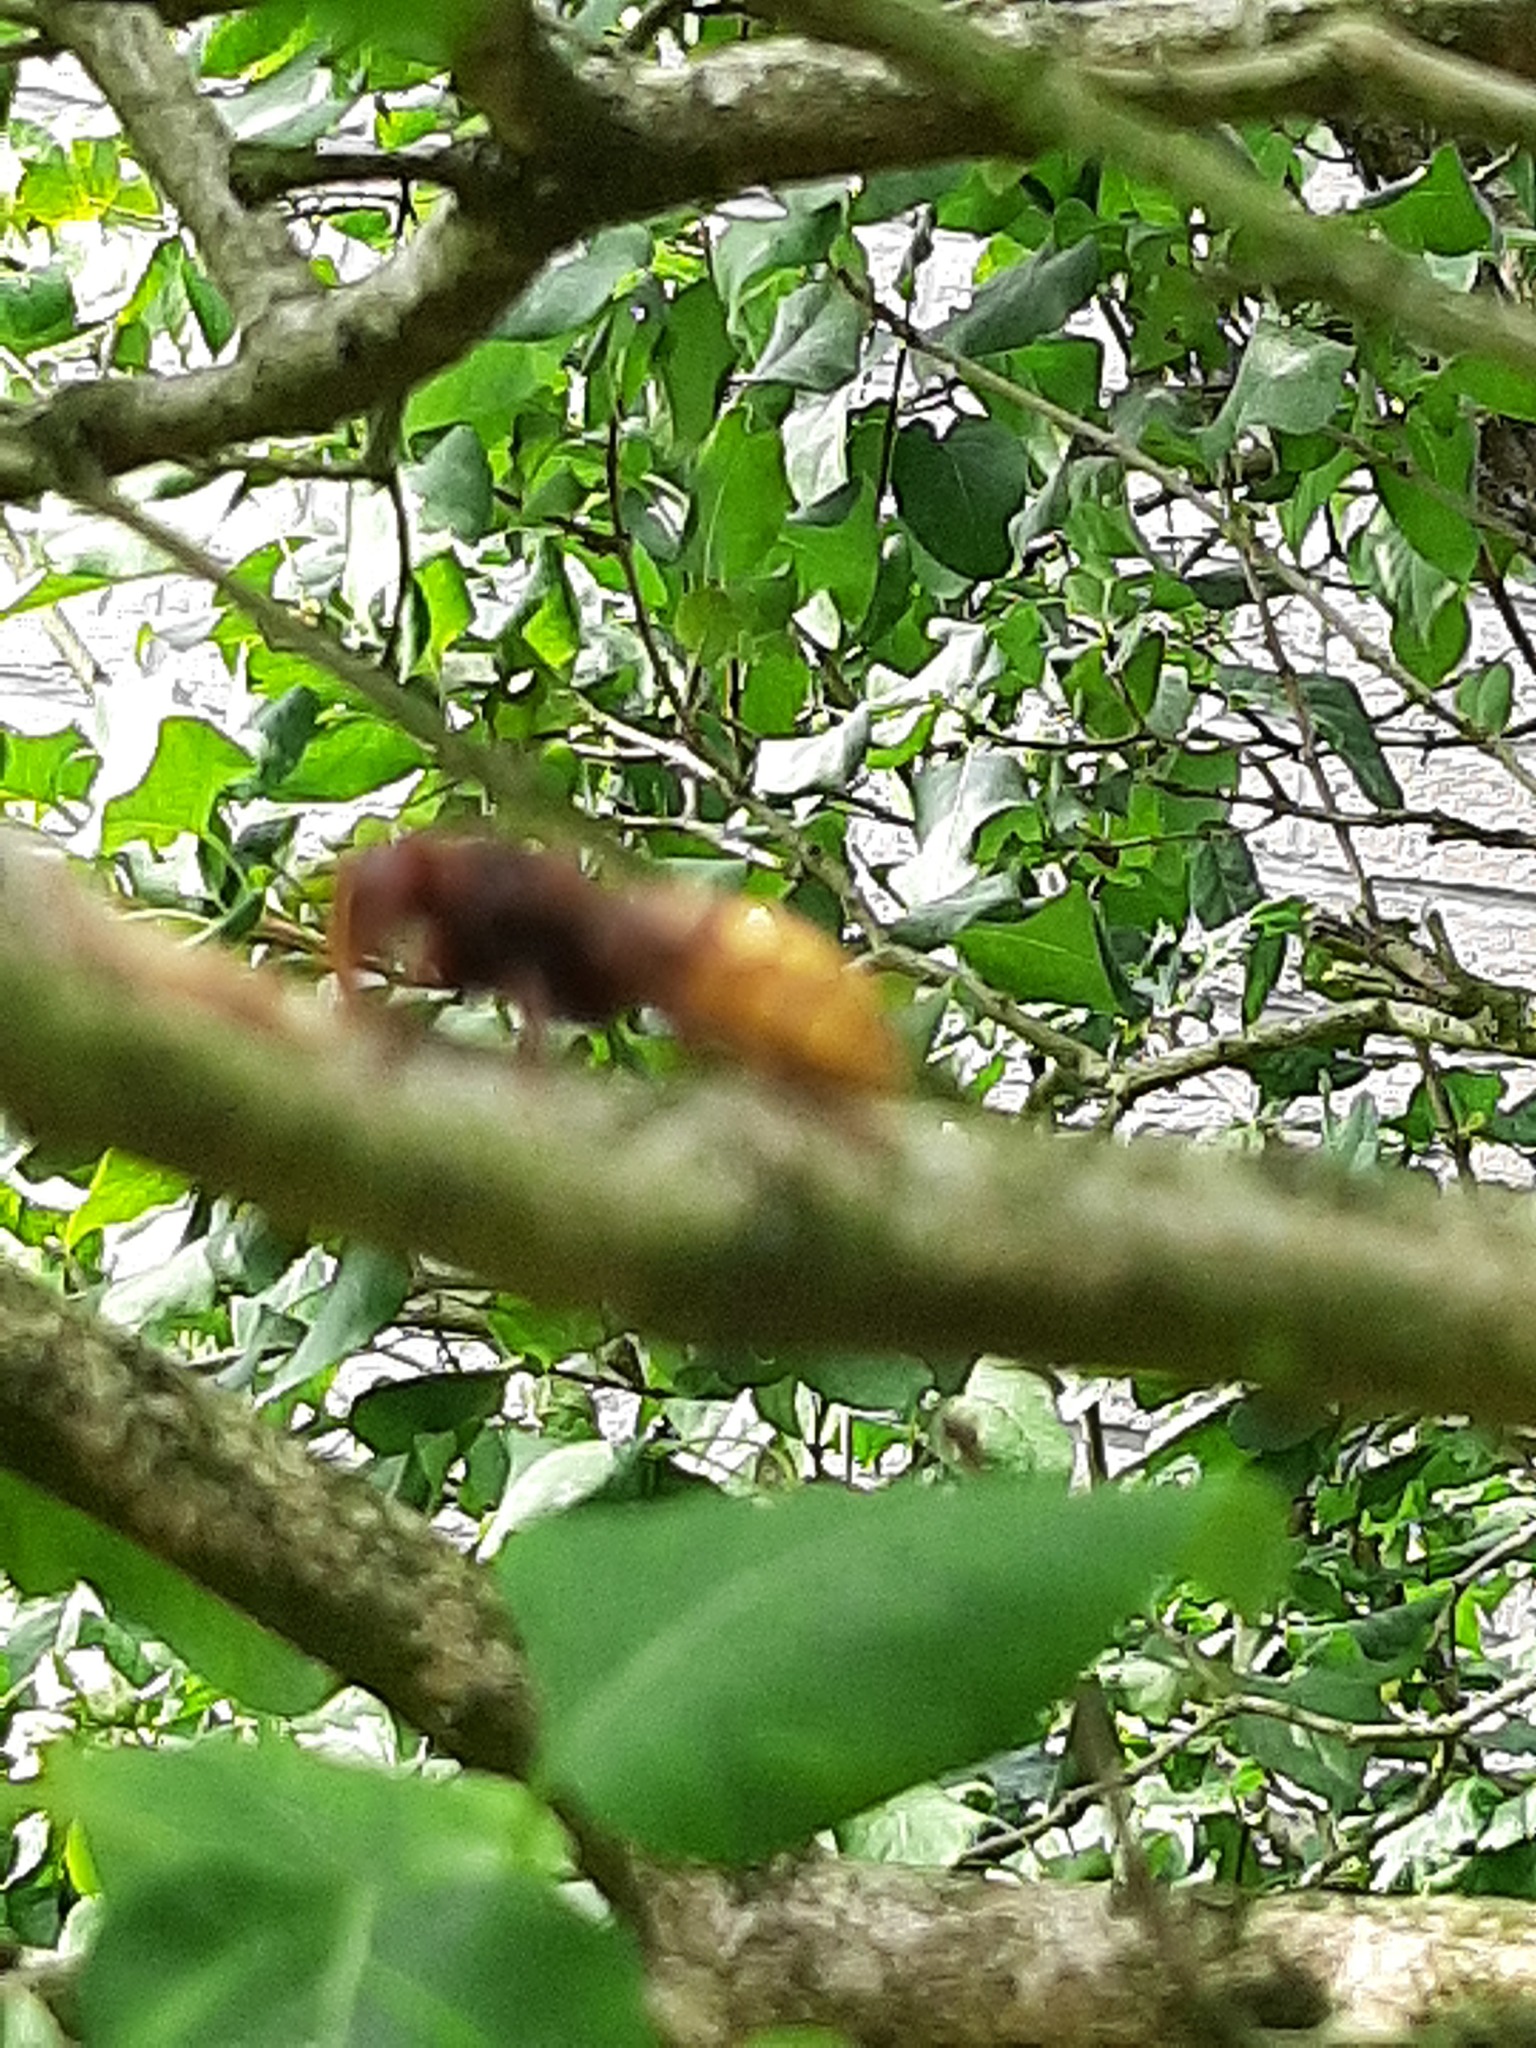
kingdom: Animalia
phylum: Arthropoda
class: Insecta
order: Hymenoptera
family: Vespidae
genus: Vespa
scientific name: Vespa crabro
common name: Hornet
